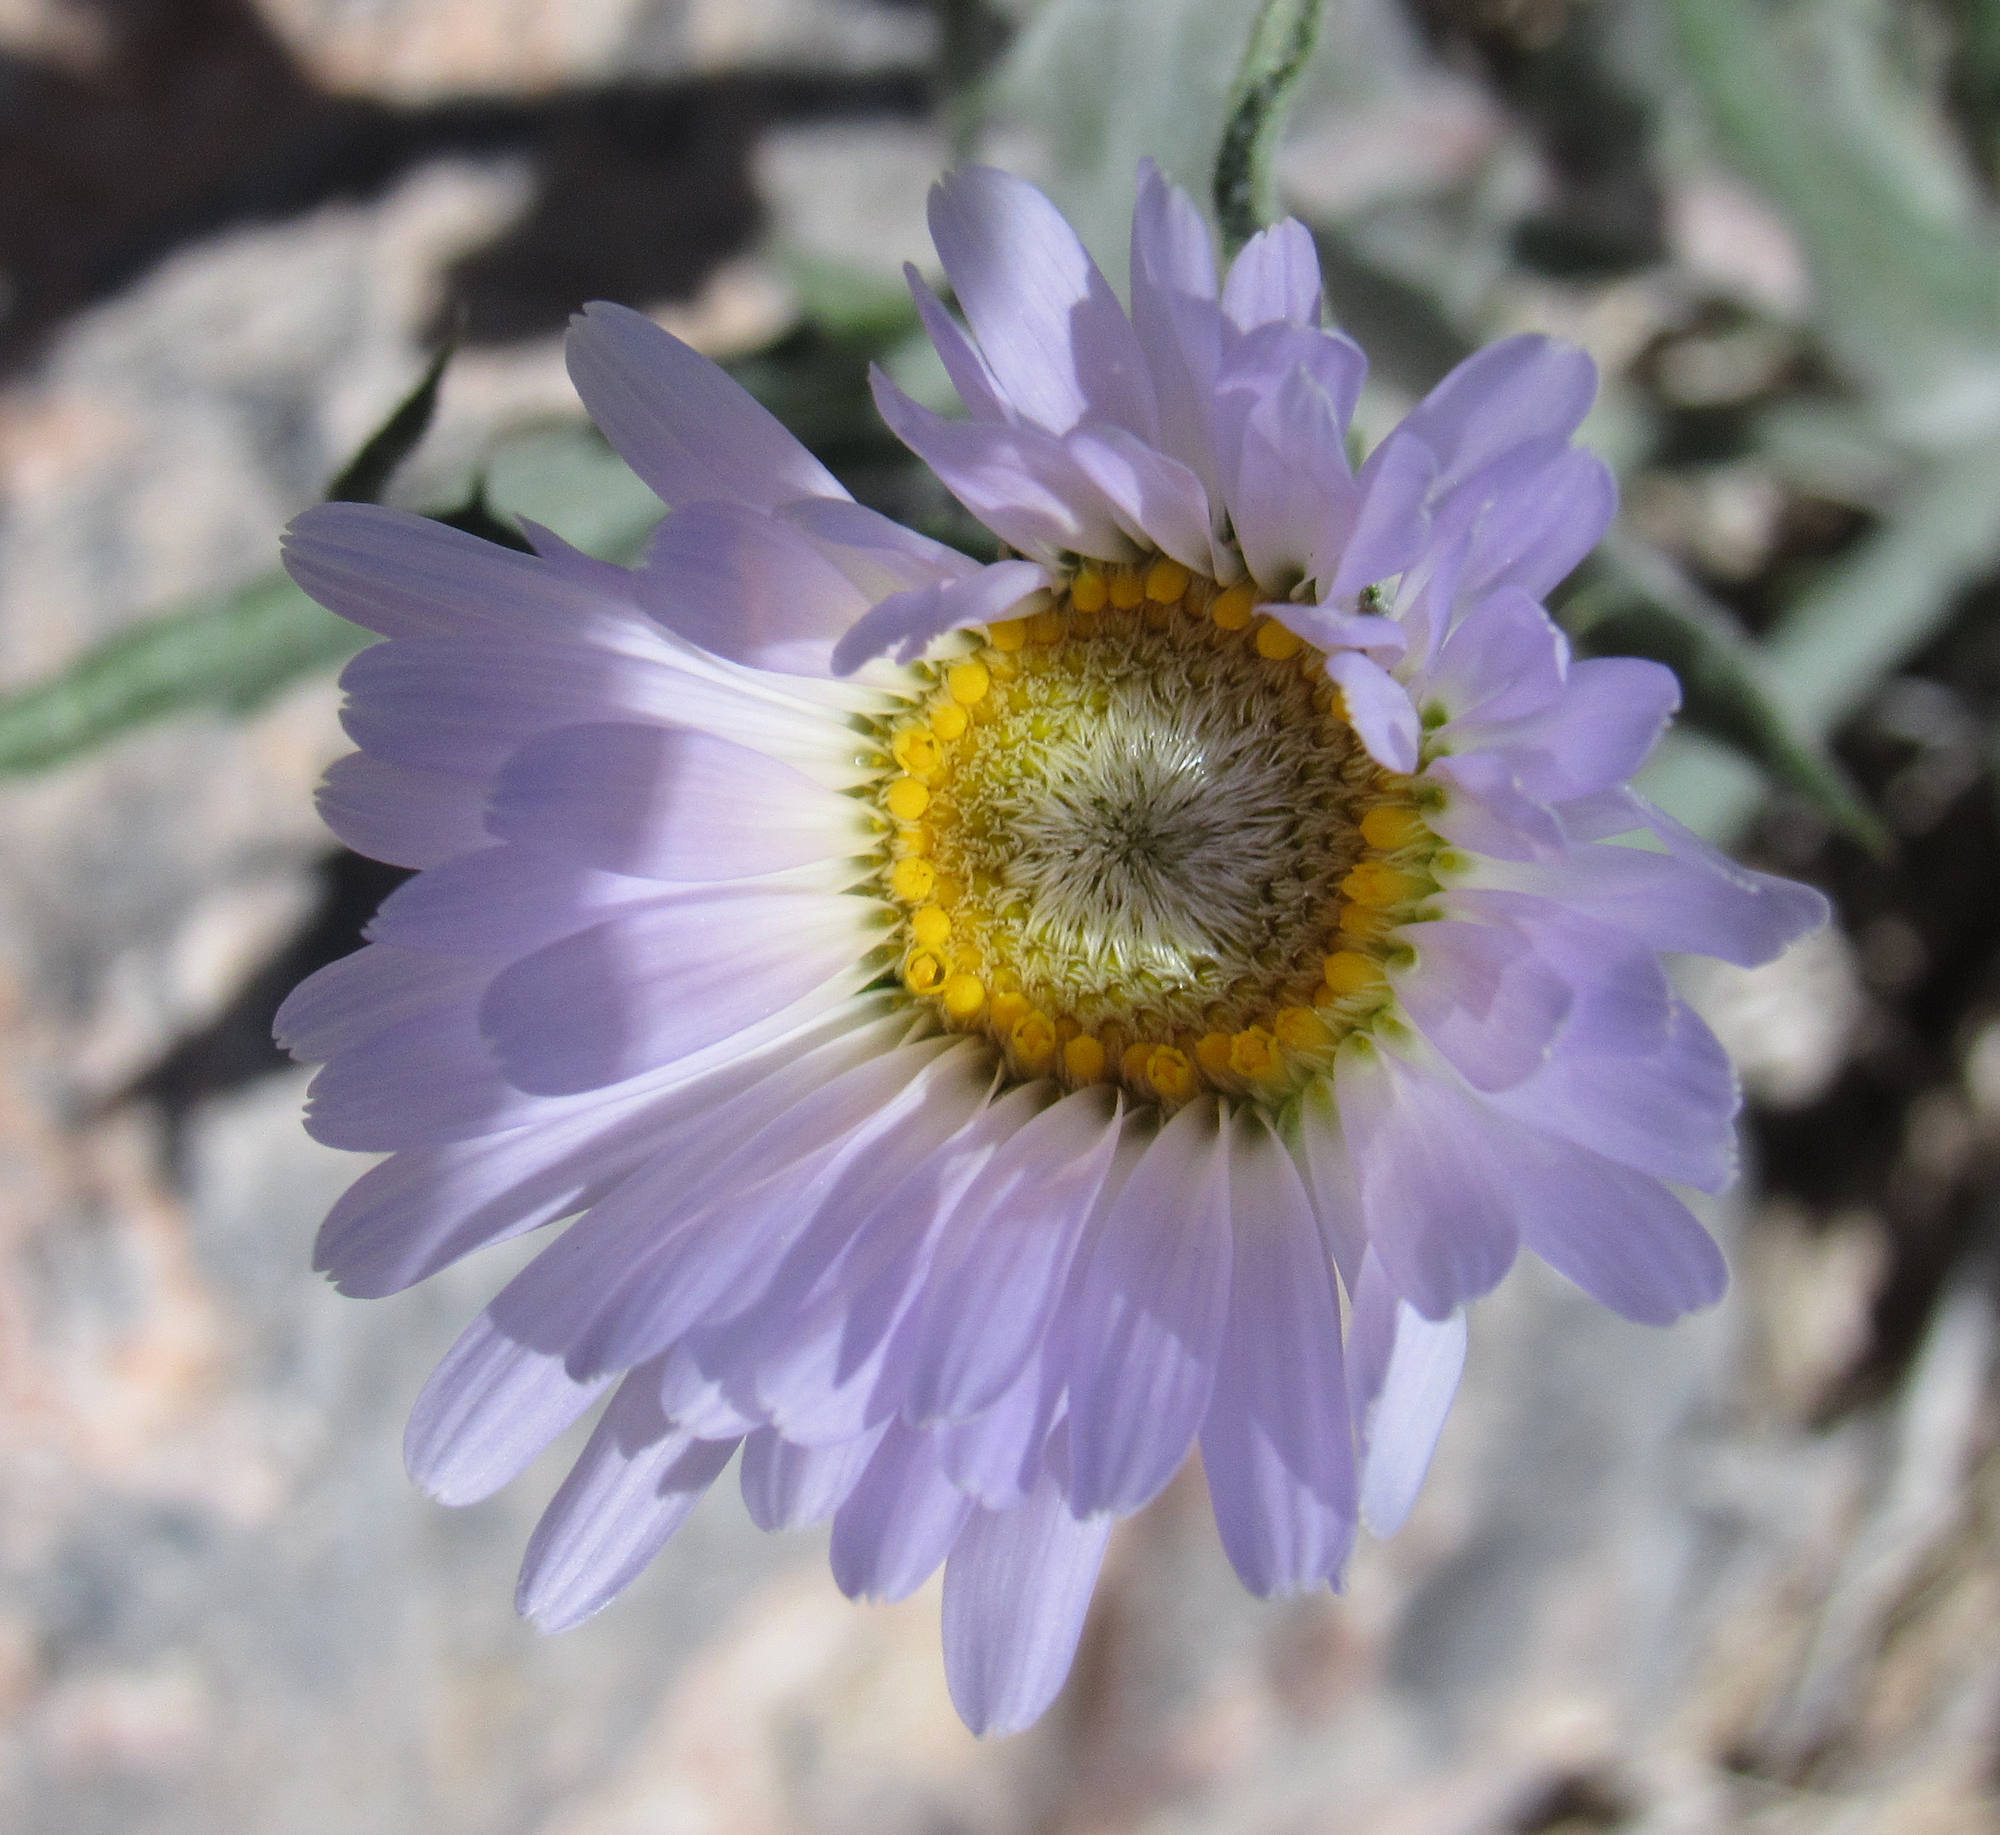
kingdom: Plantae
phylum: Tracheophyta
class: Magnoliopsida
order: Asterales
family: Asteraceae
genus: Xylorhiza
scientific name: Xylorhiza tortifolia
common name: Hurt-leaf woody-aster
